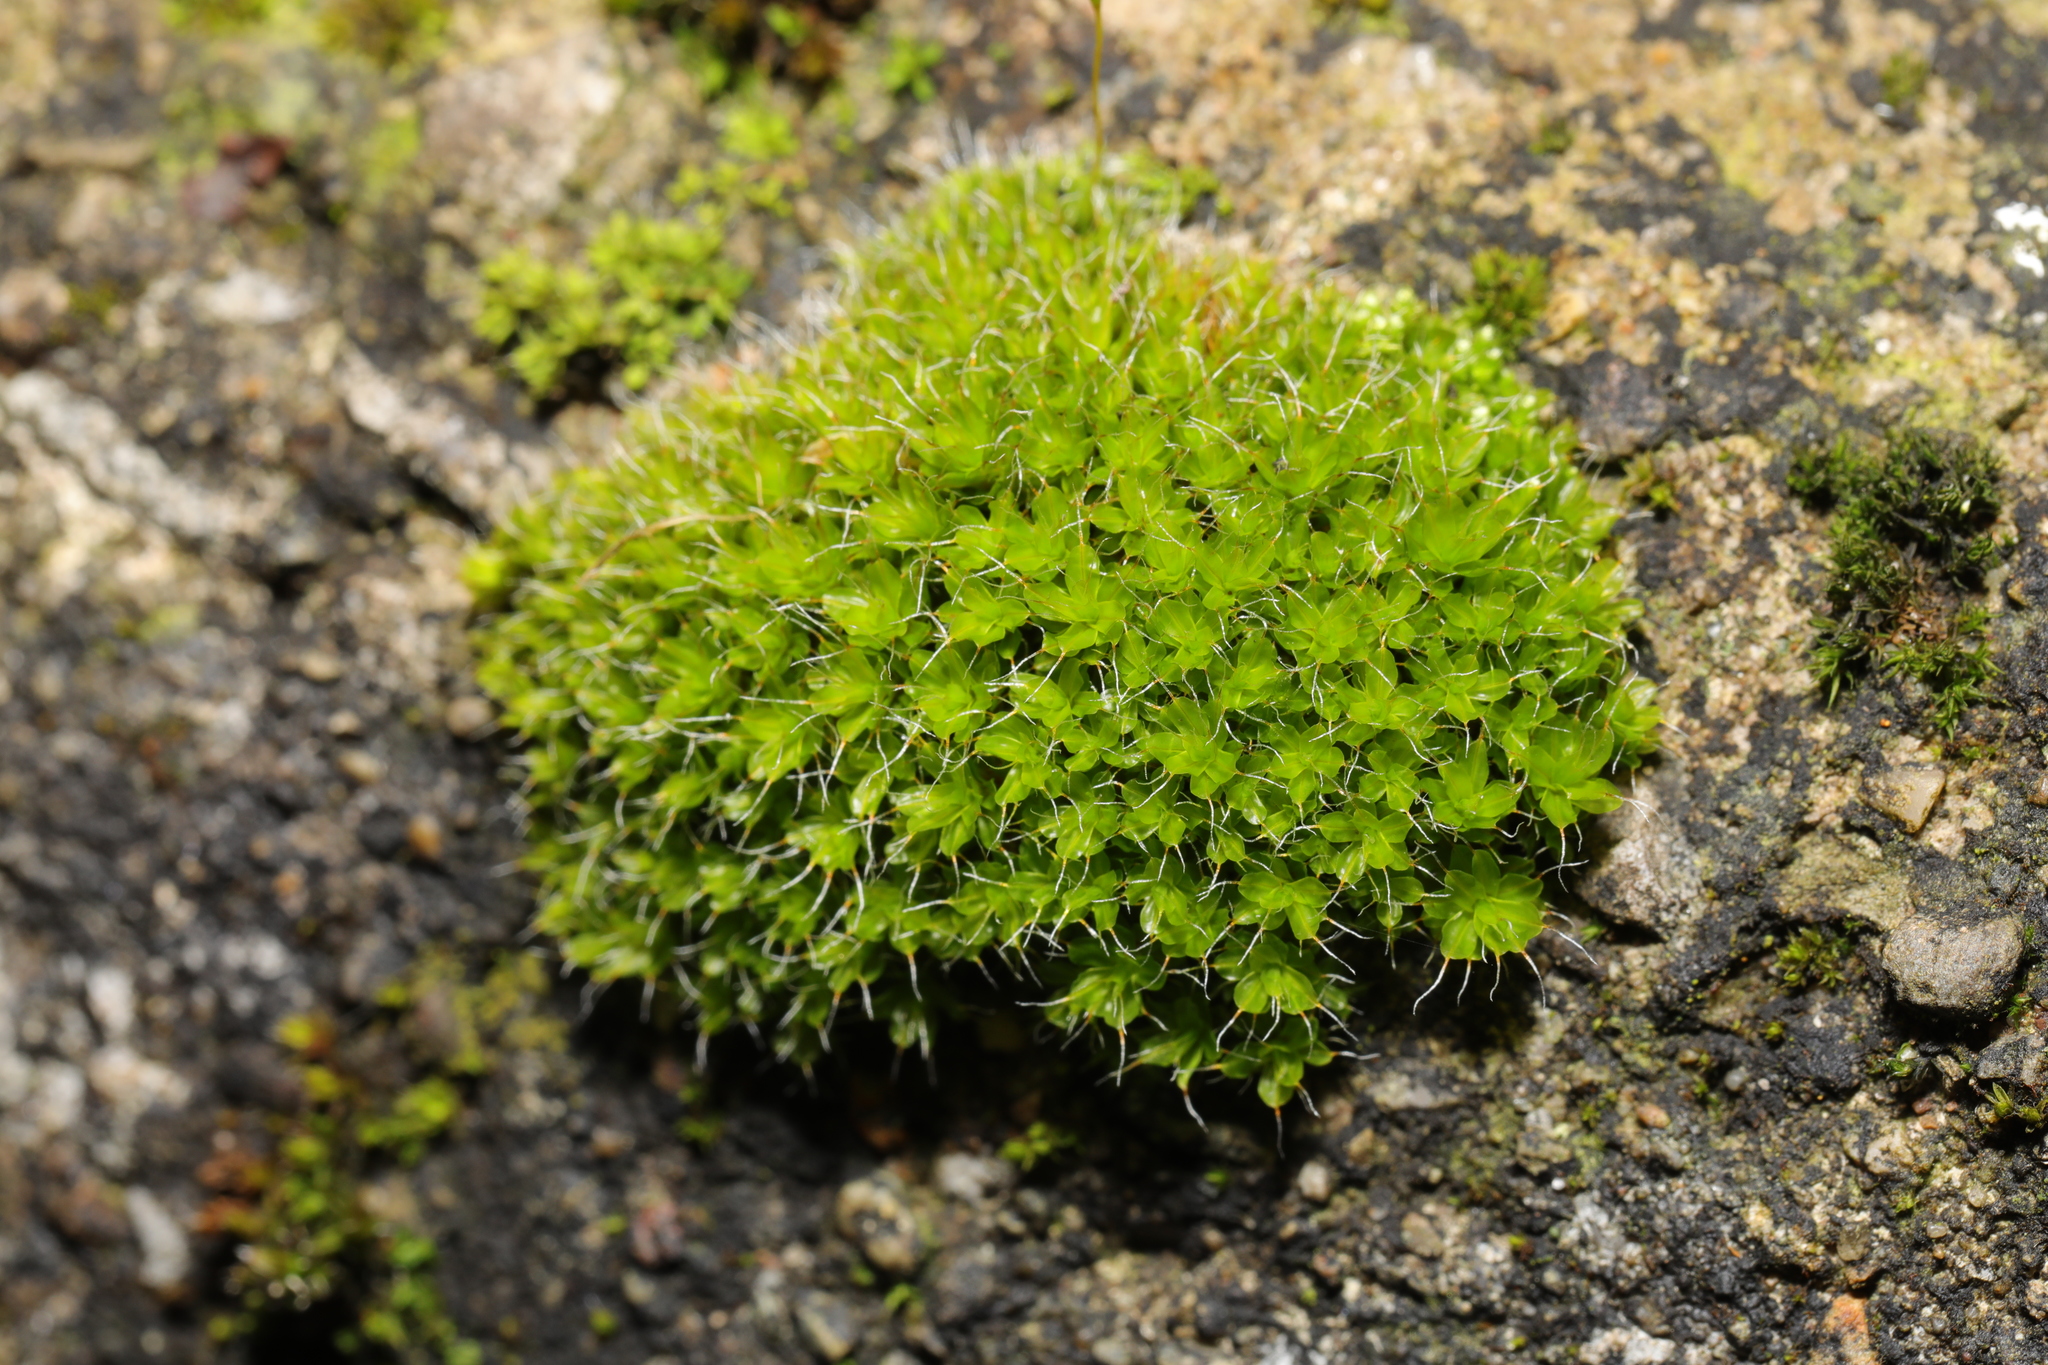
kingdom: Plantae
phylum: Bryophyta
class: Bryopsida
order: Pottiales
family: Pottiaceae
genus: Syntrichia
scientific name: Syntrichia montana
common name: Intermediate screw-moss
